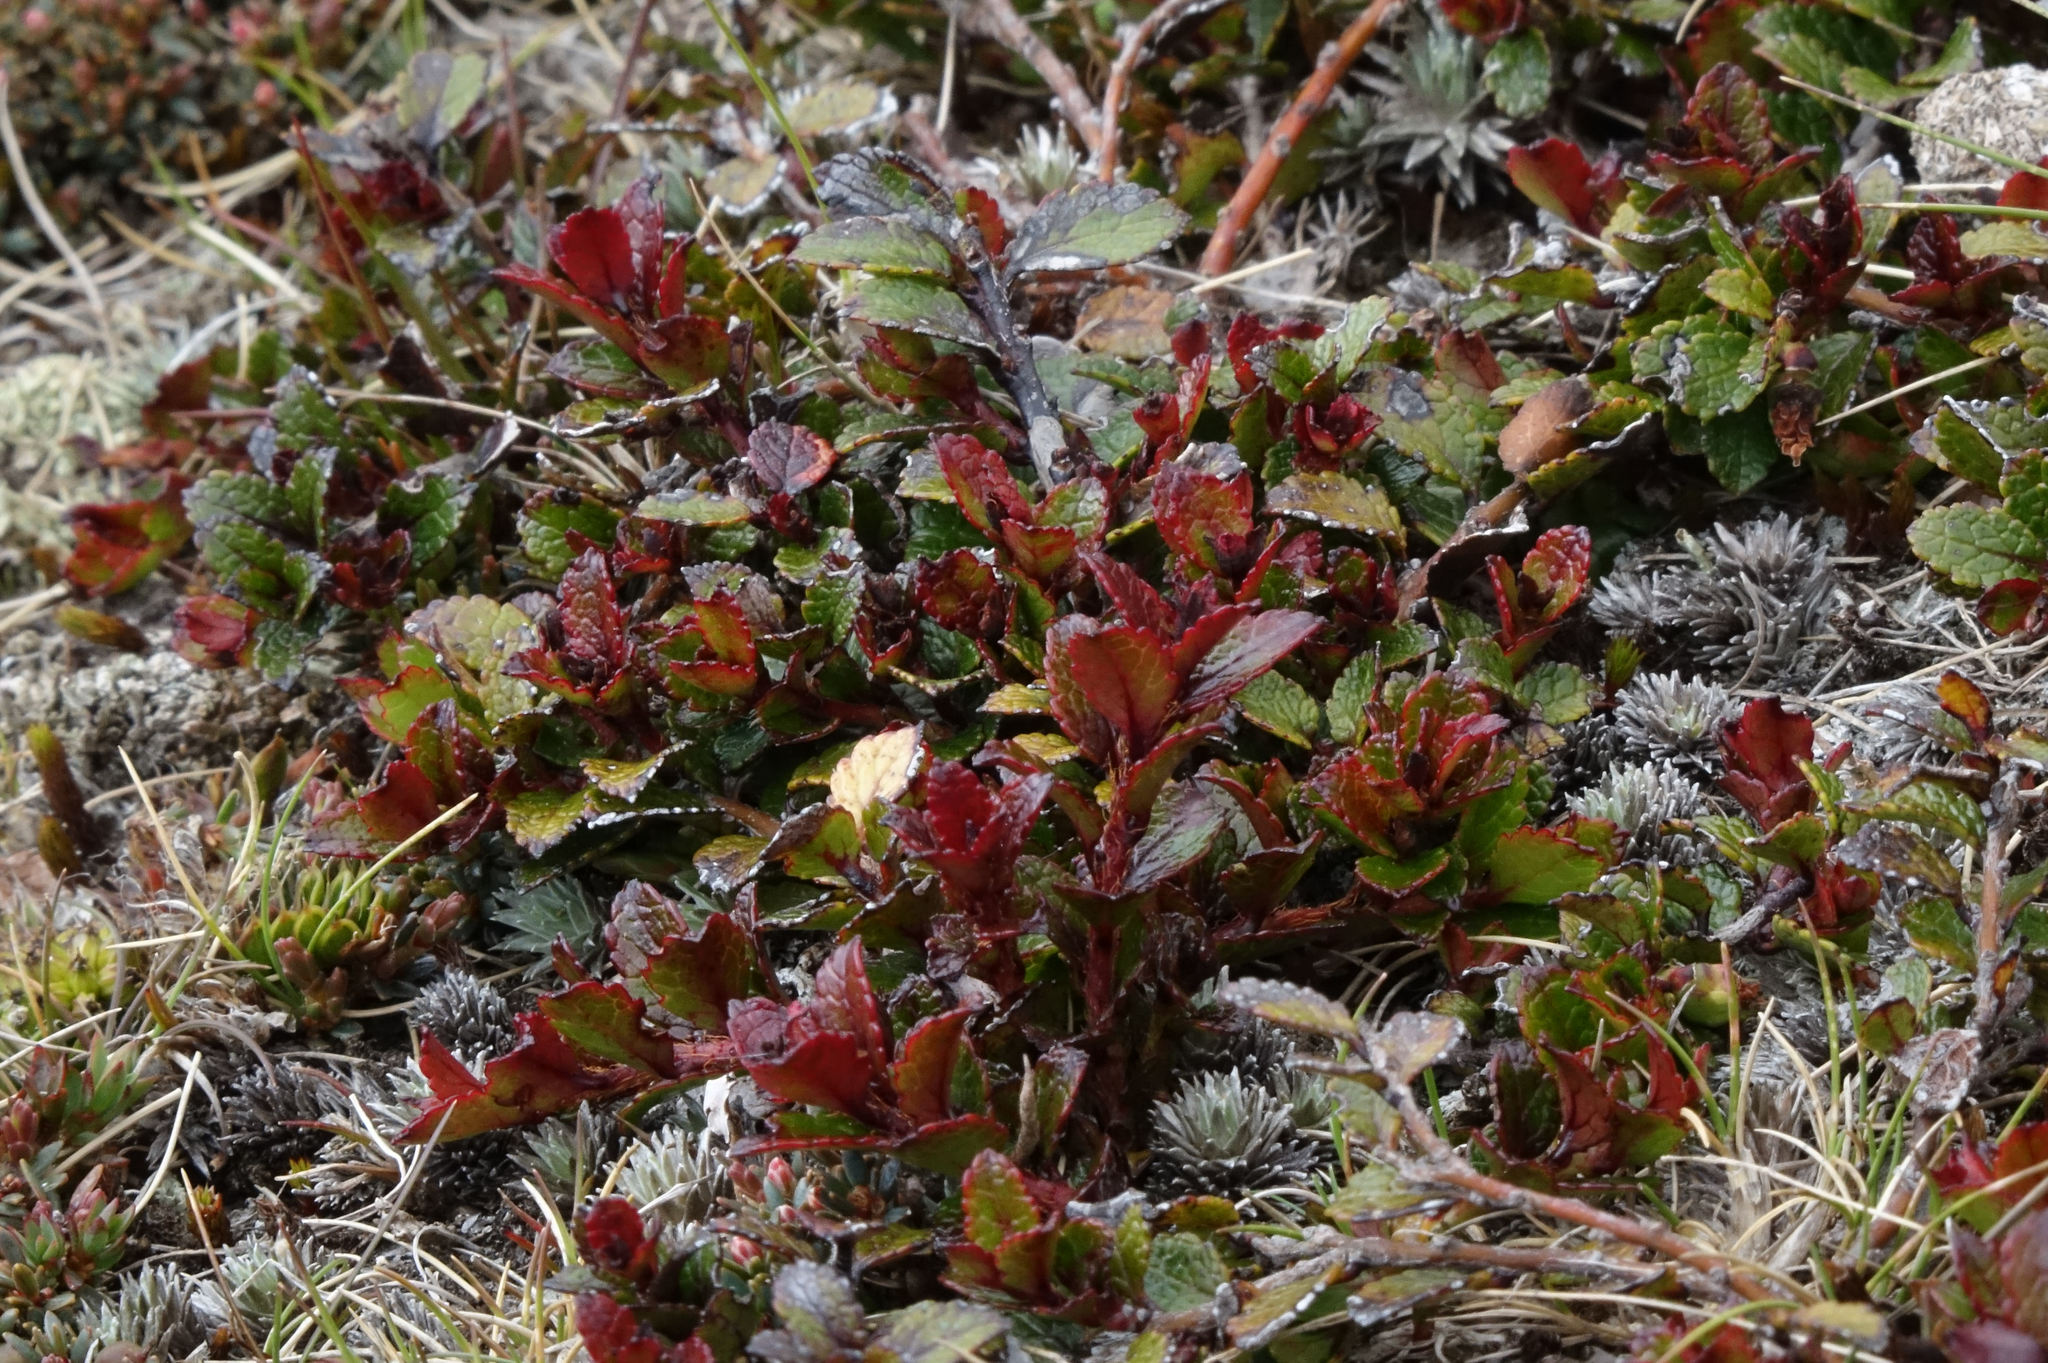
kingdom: Plantae
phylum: Tracheophyta
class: Magnoliopsida
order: Ericales
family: Ericaceae
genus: Gaultheria
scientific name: Gaultheria depressa
